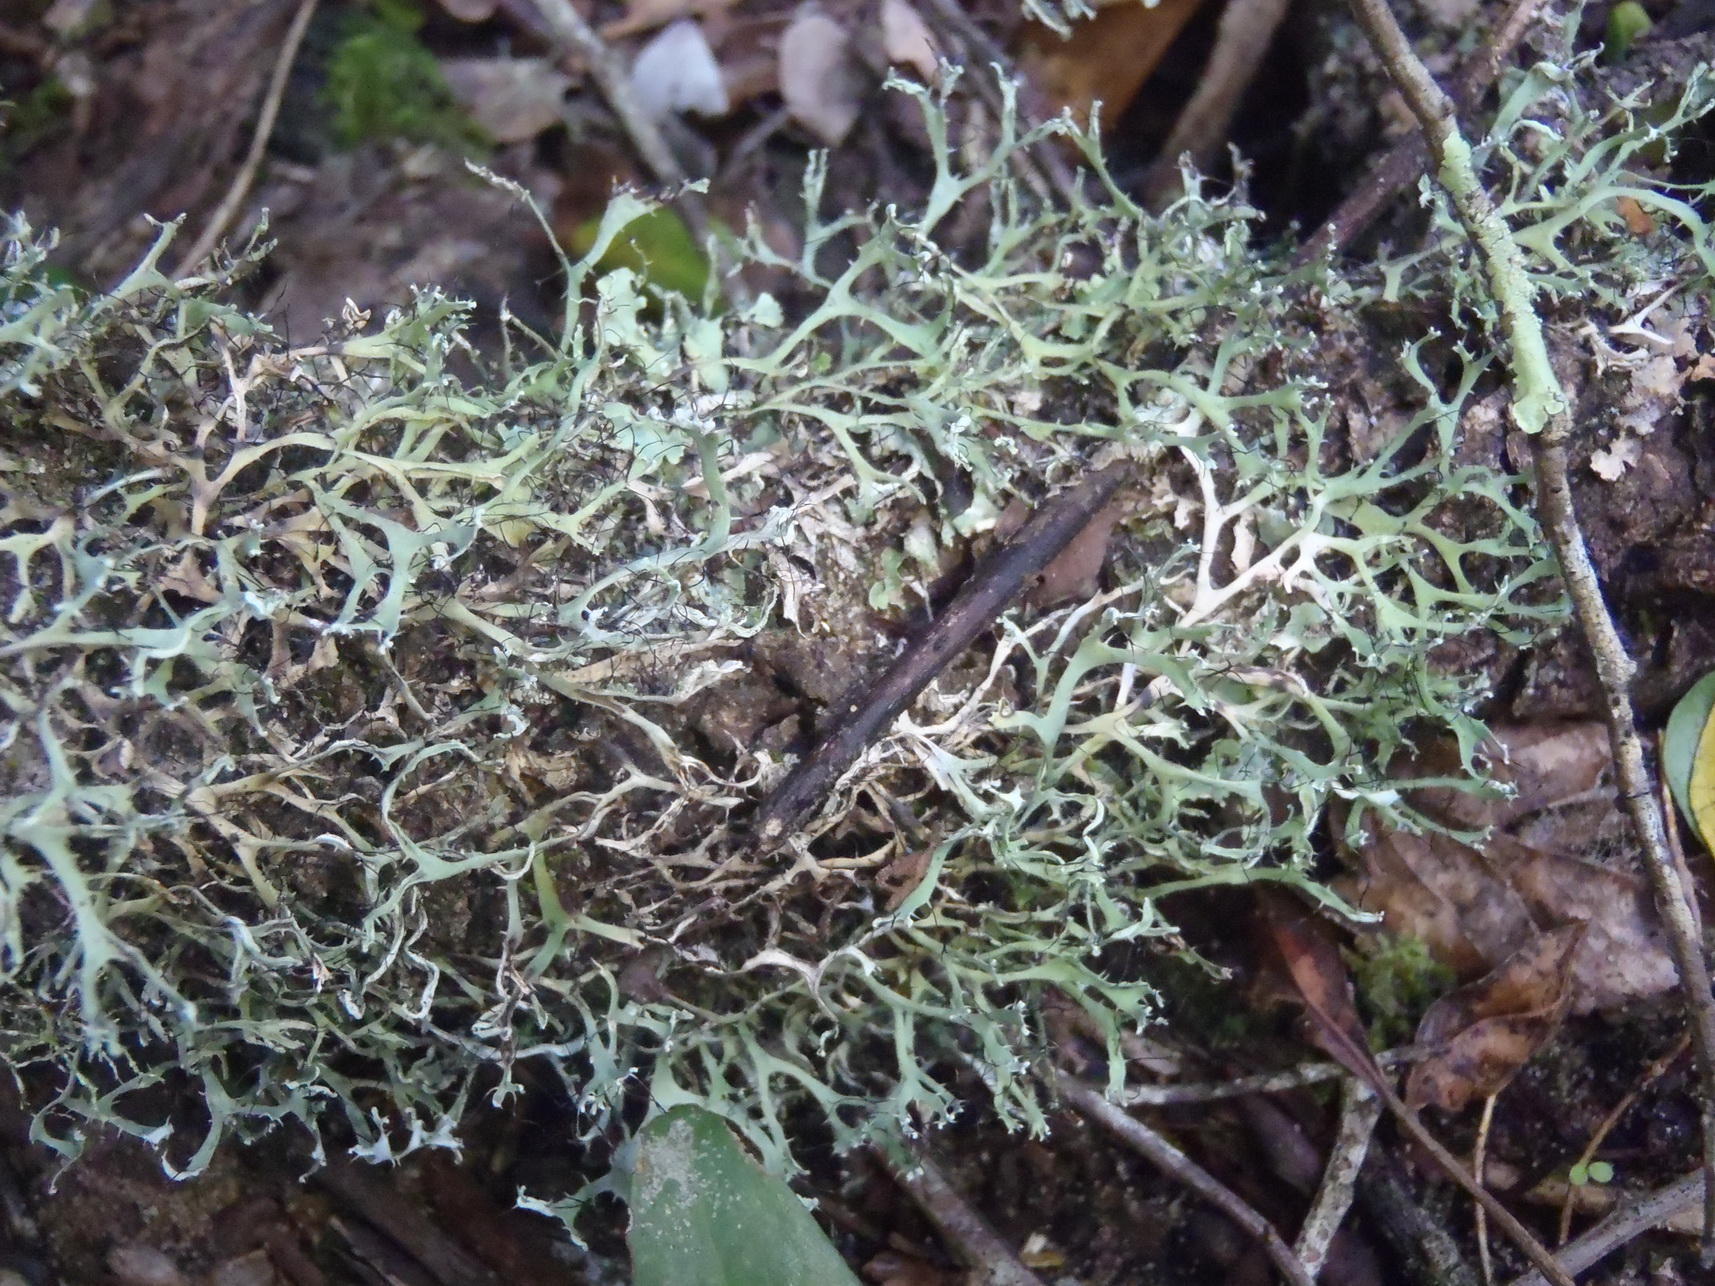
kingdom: Fungi
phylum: Ascomycota
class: Lecanoromycetes
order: Caliciales
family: Physciaceae
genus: Leucodermia
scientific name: Leucodermia leucomelos
